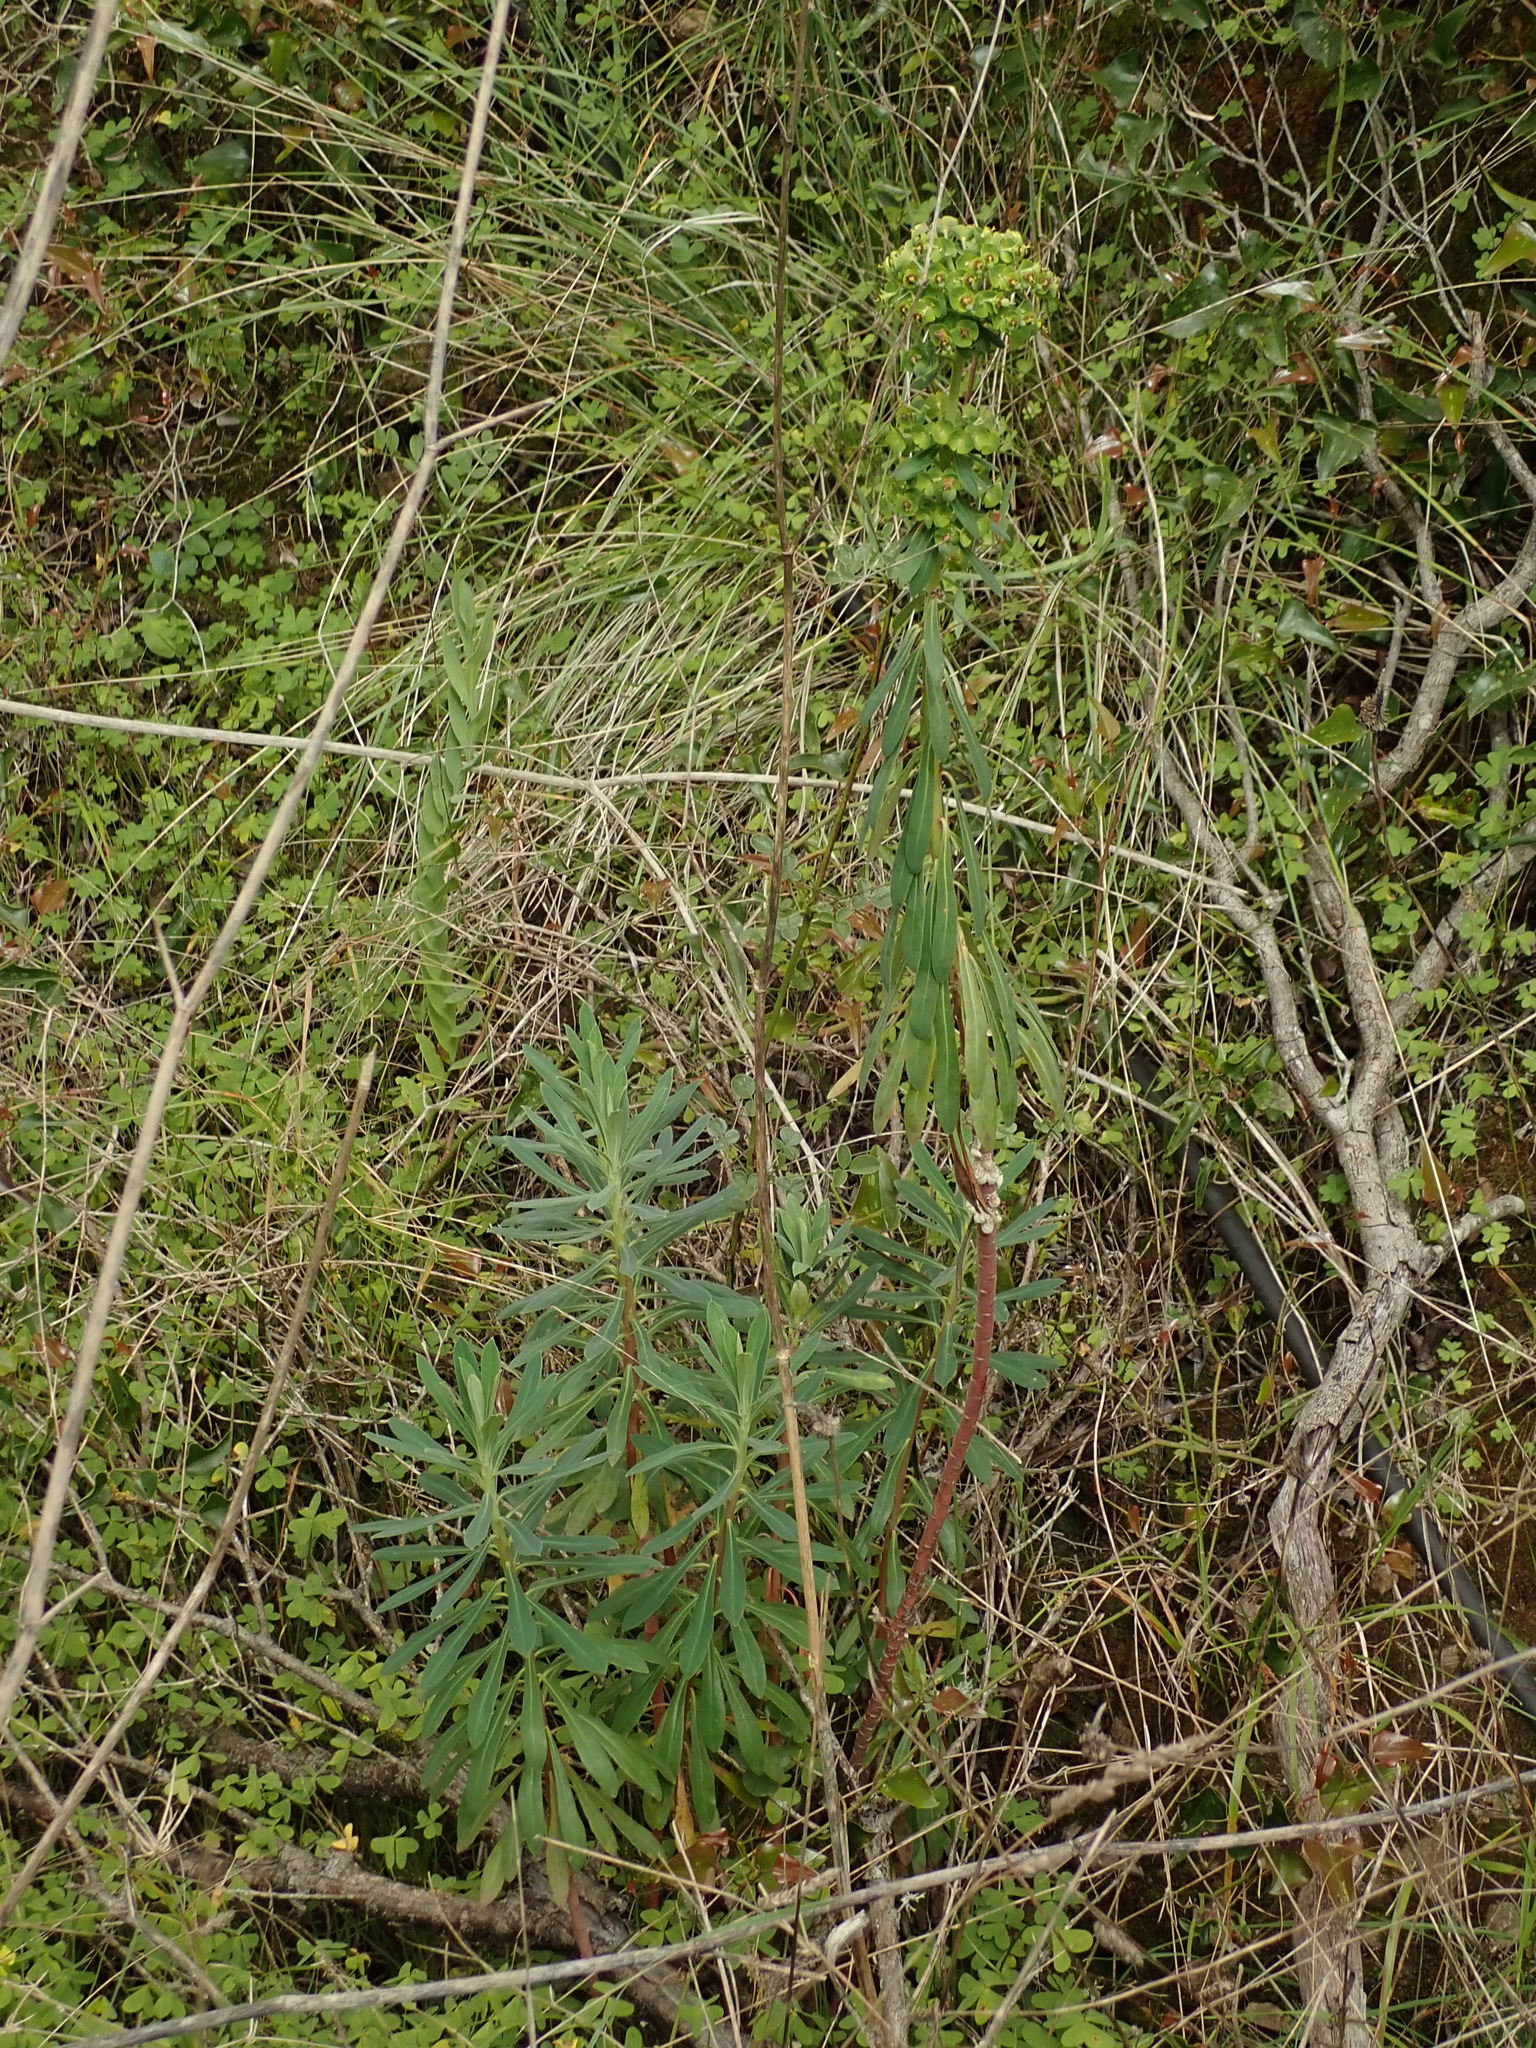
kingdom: Plantae
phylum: Tracheophyta
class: Magnoliopsida
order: Malpighiales
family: Euphorbiaceae
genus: Euphorbia
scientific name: Euphorbia characias
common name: Mediterranean spurge
